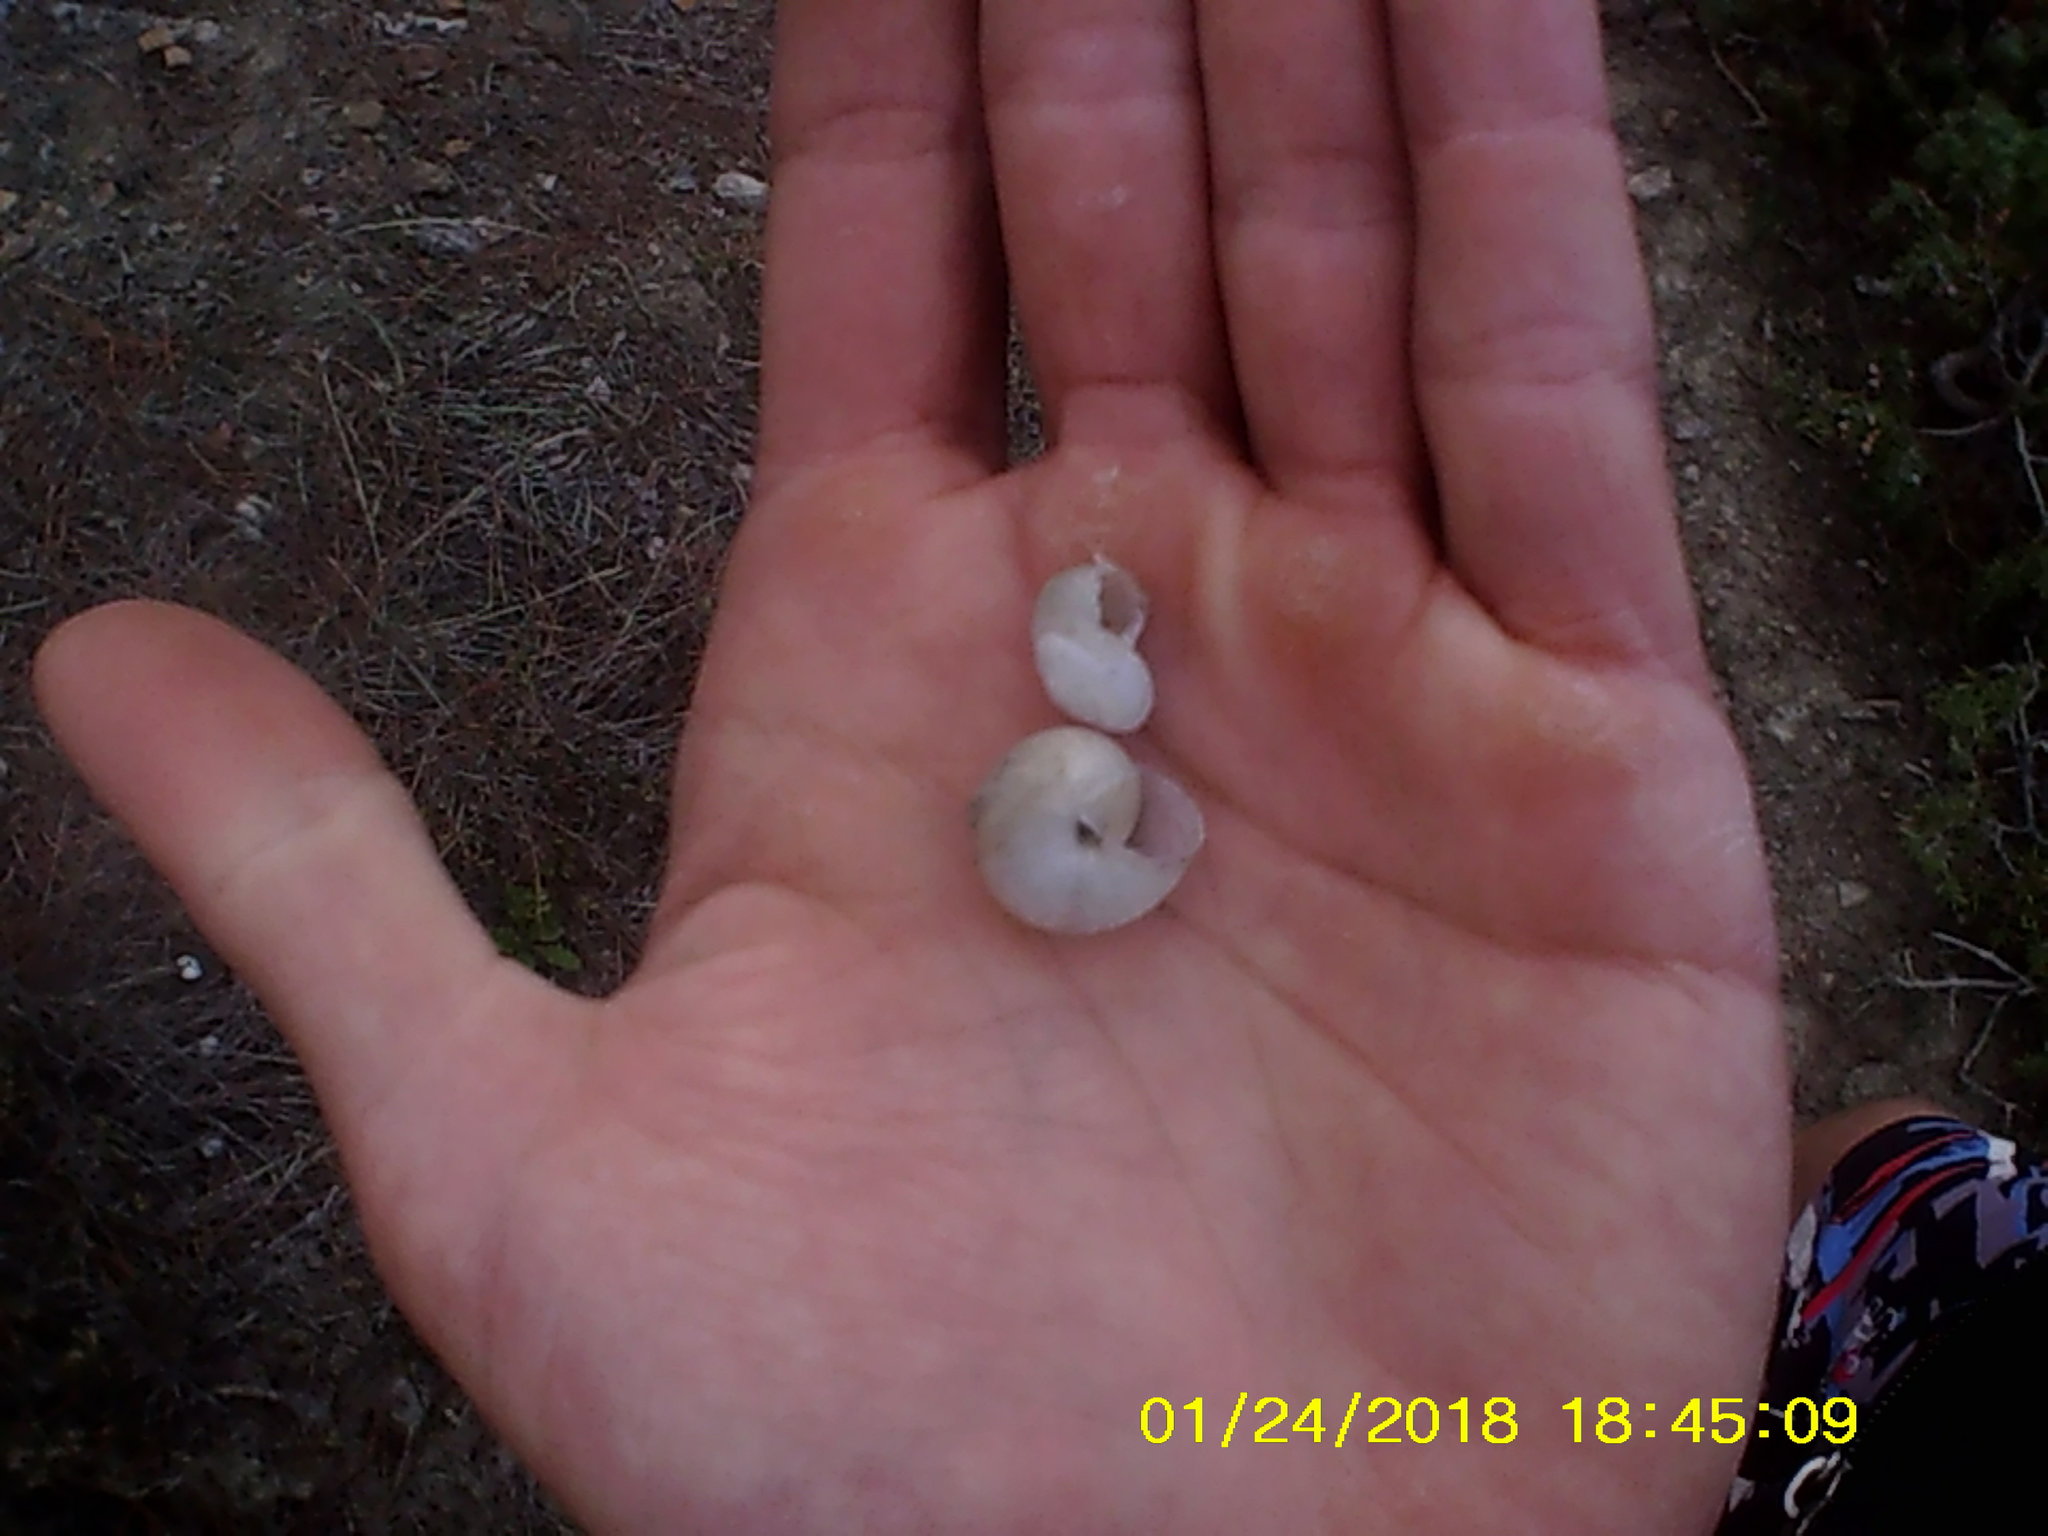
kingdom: Animalia
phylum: Mollusca
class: Gastropoda
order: Stylommatophora
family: Hygromiidae
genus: Monacha
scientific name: Monacha fruticola
